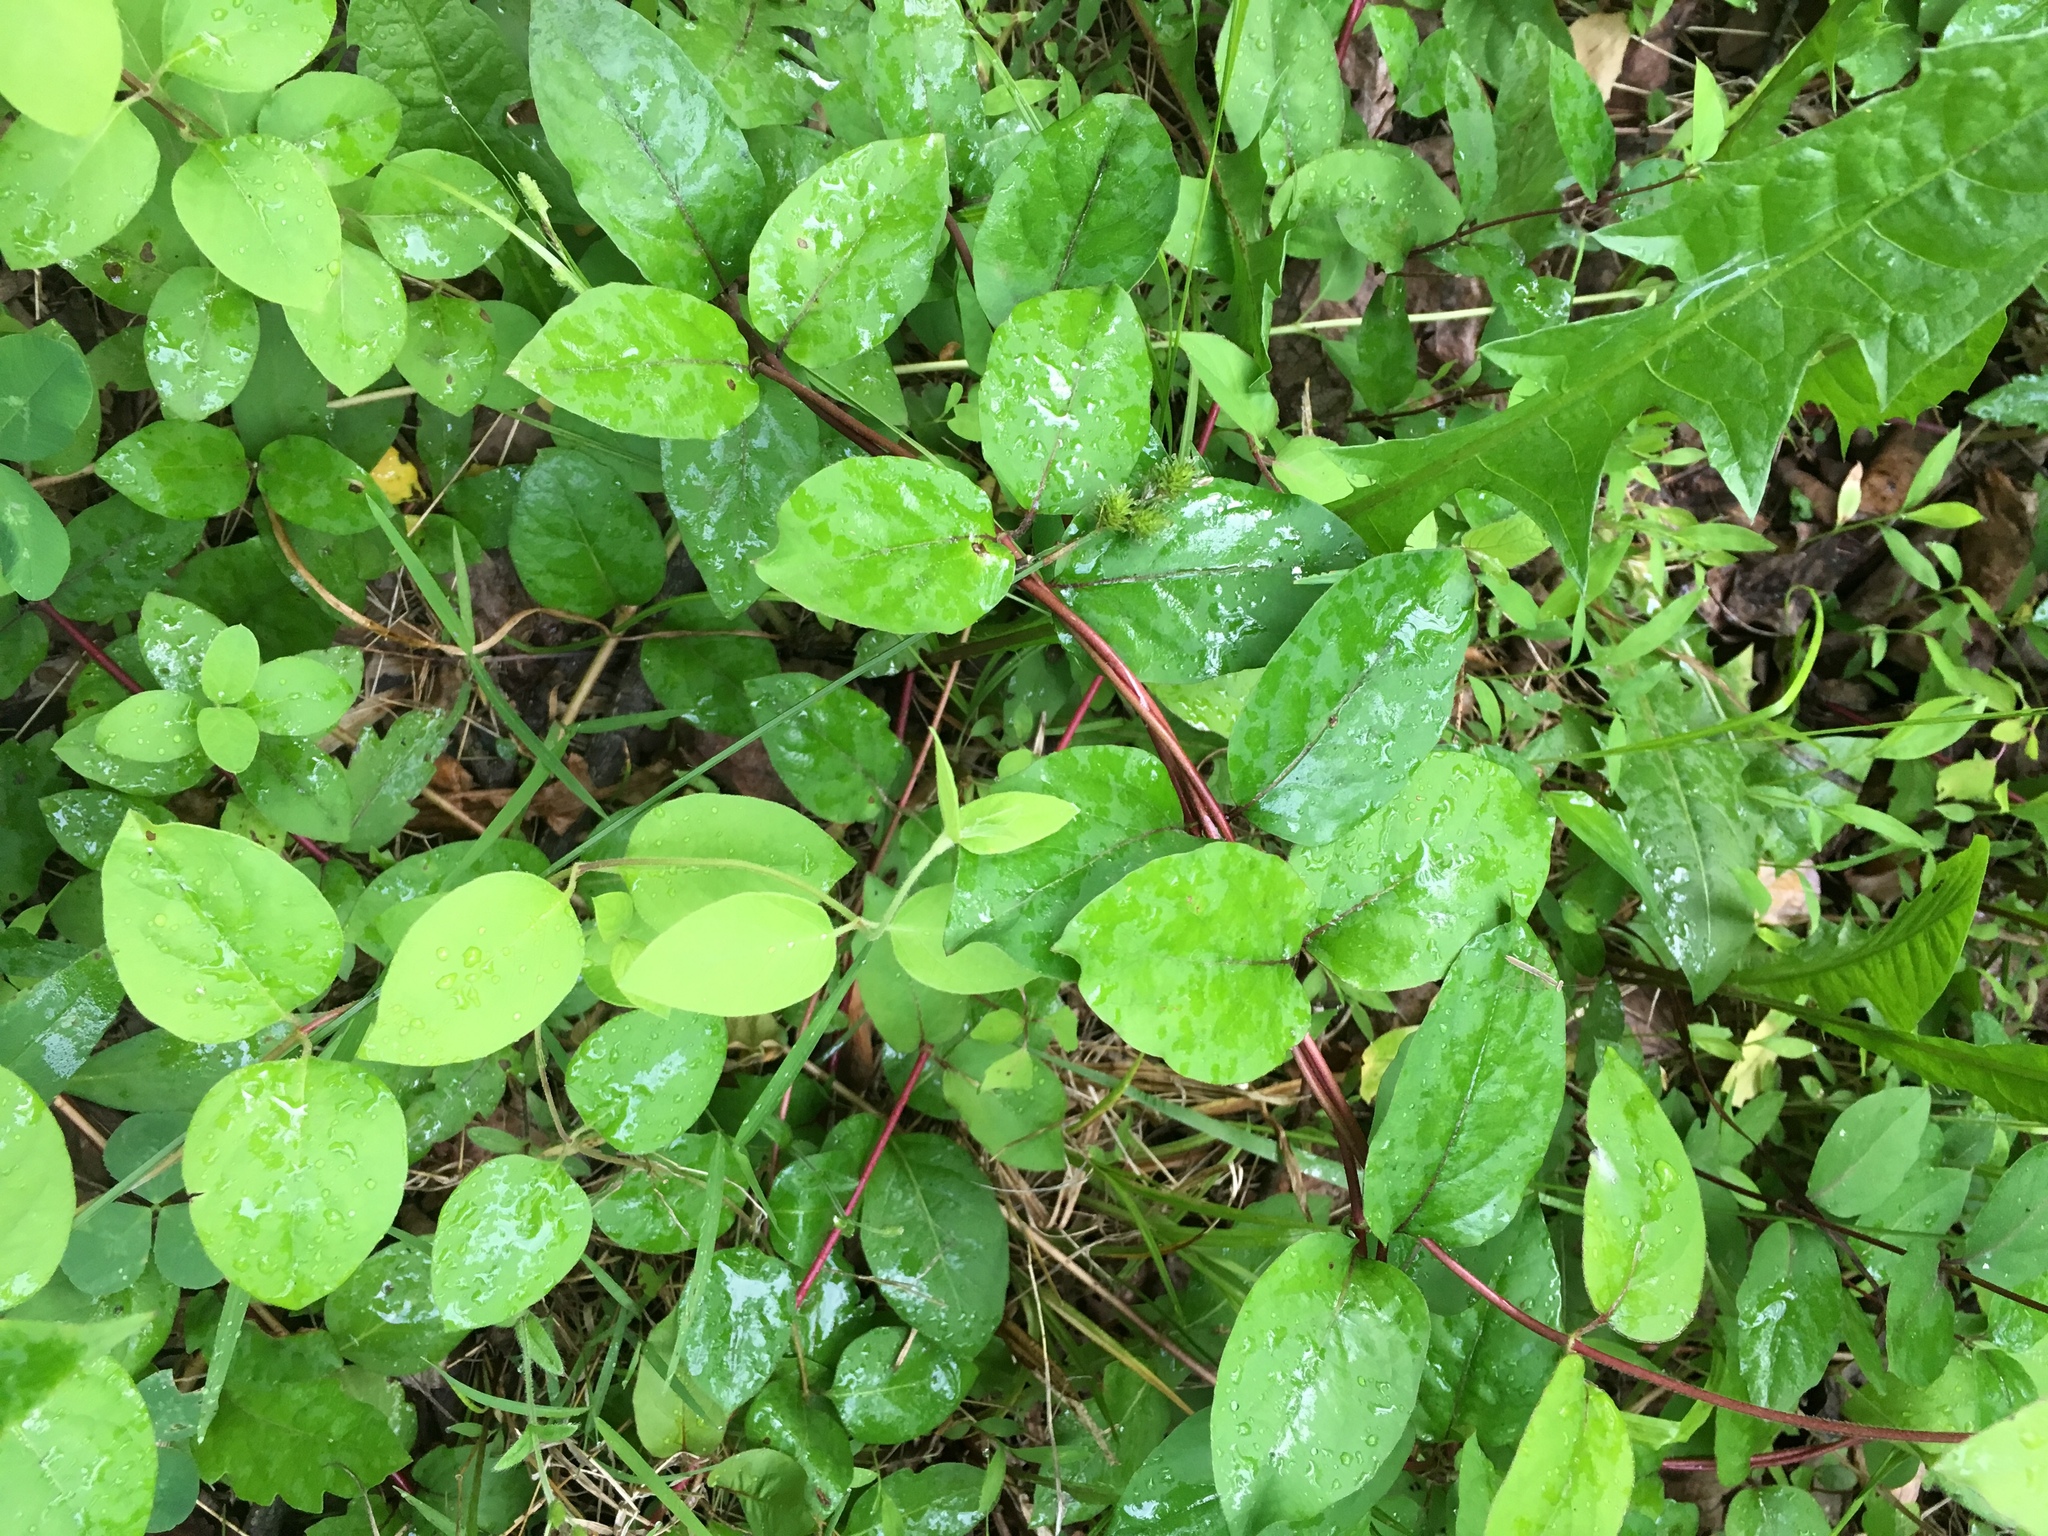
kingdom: Plantae
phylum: Tracheophyta
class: Magnoliopsida
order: Dipsacales
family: Caprifoliaceae
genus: Lonicera
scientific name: Lonicera japonica
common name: Japanese honeysuckle
